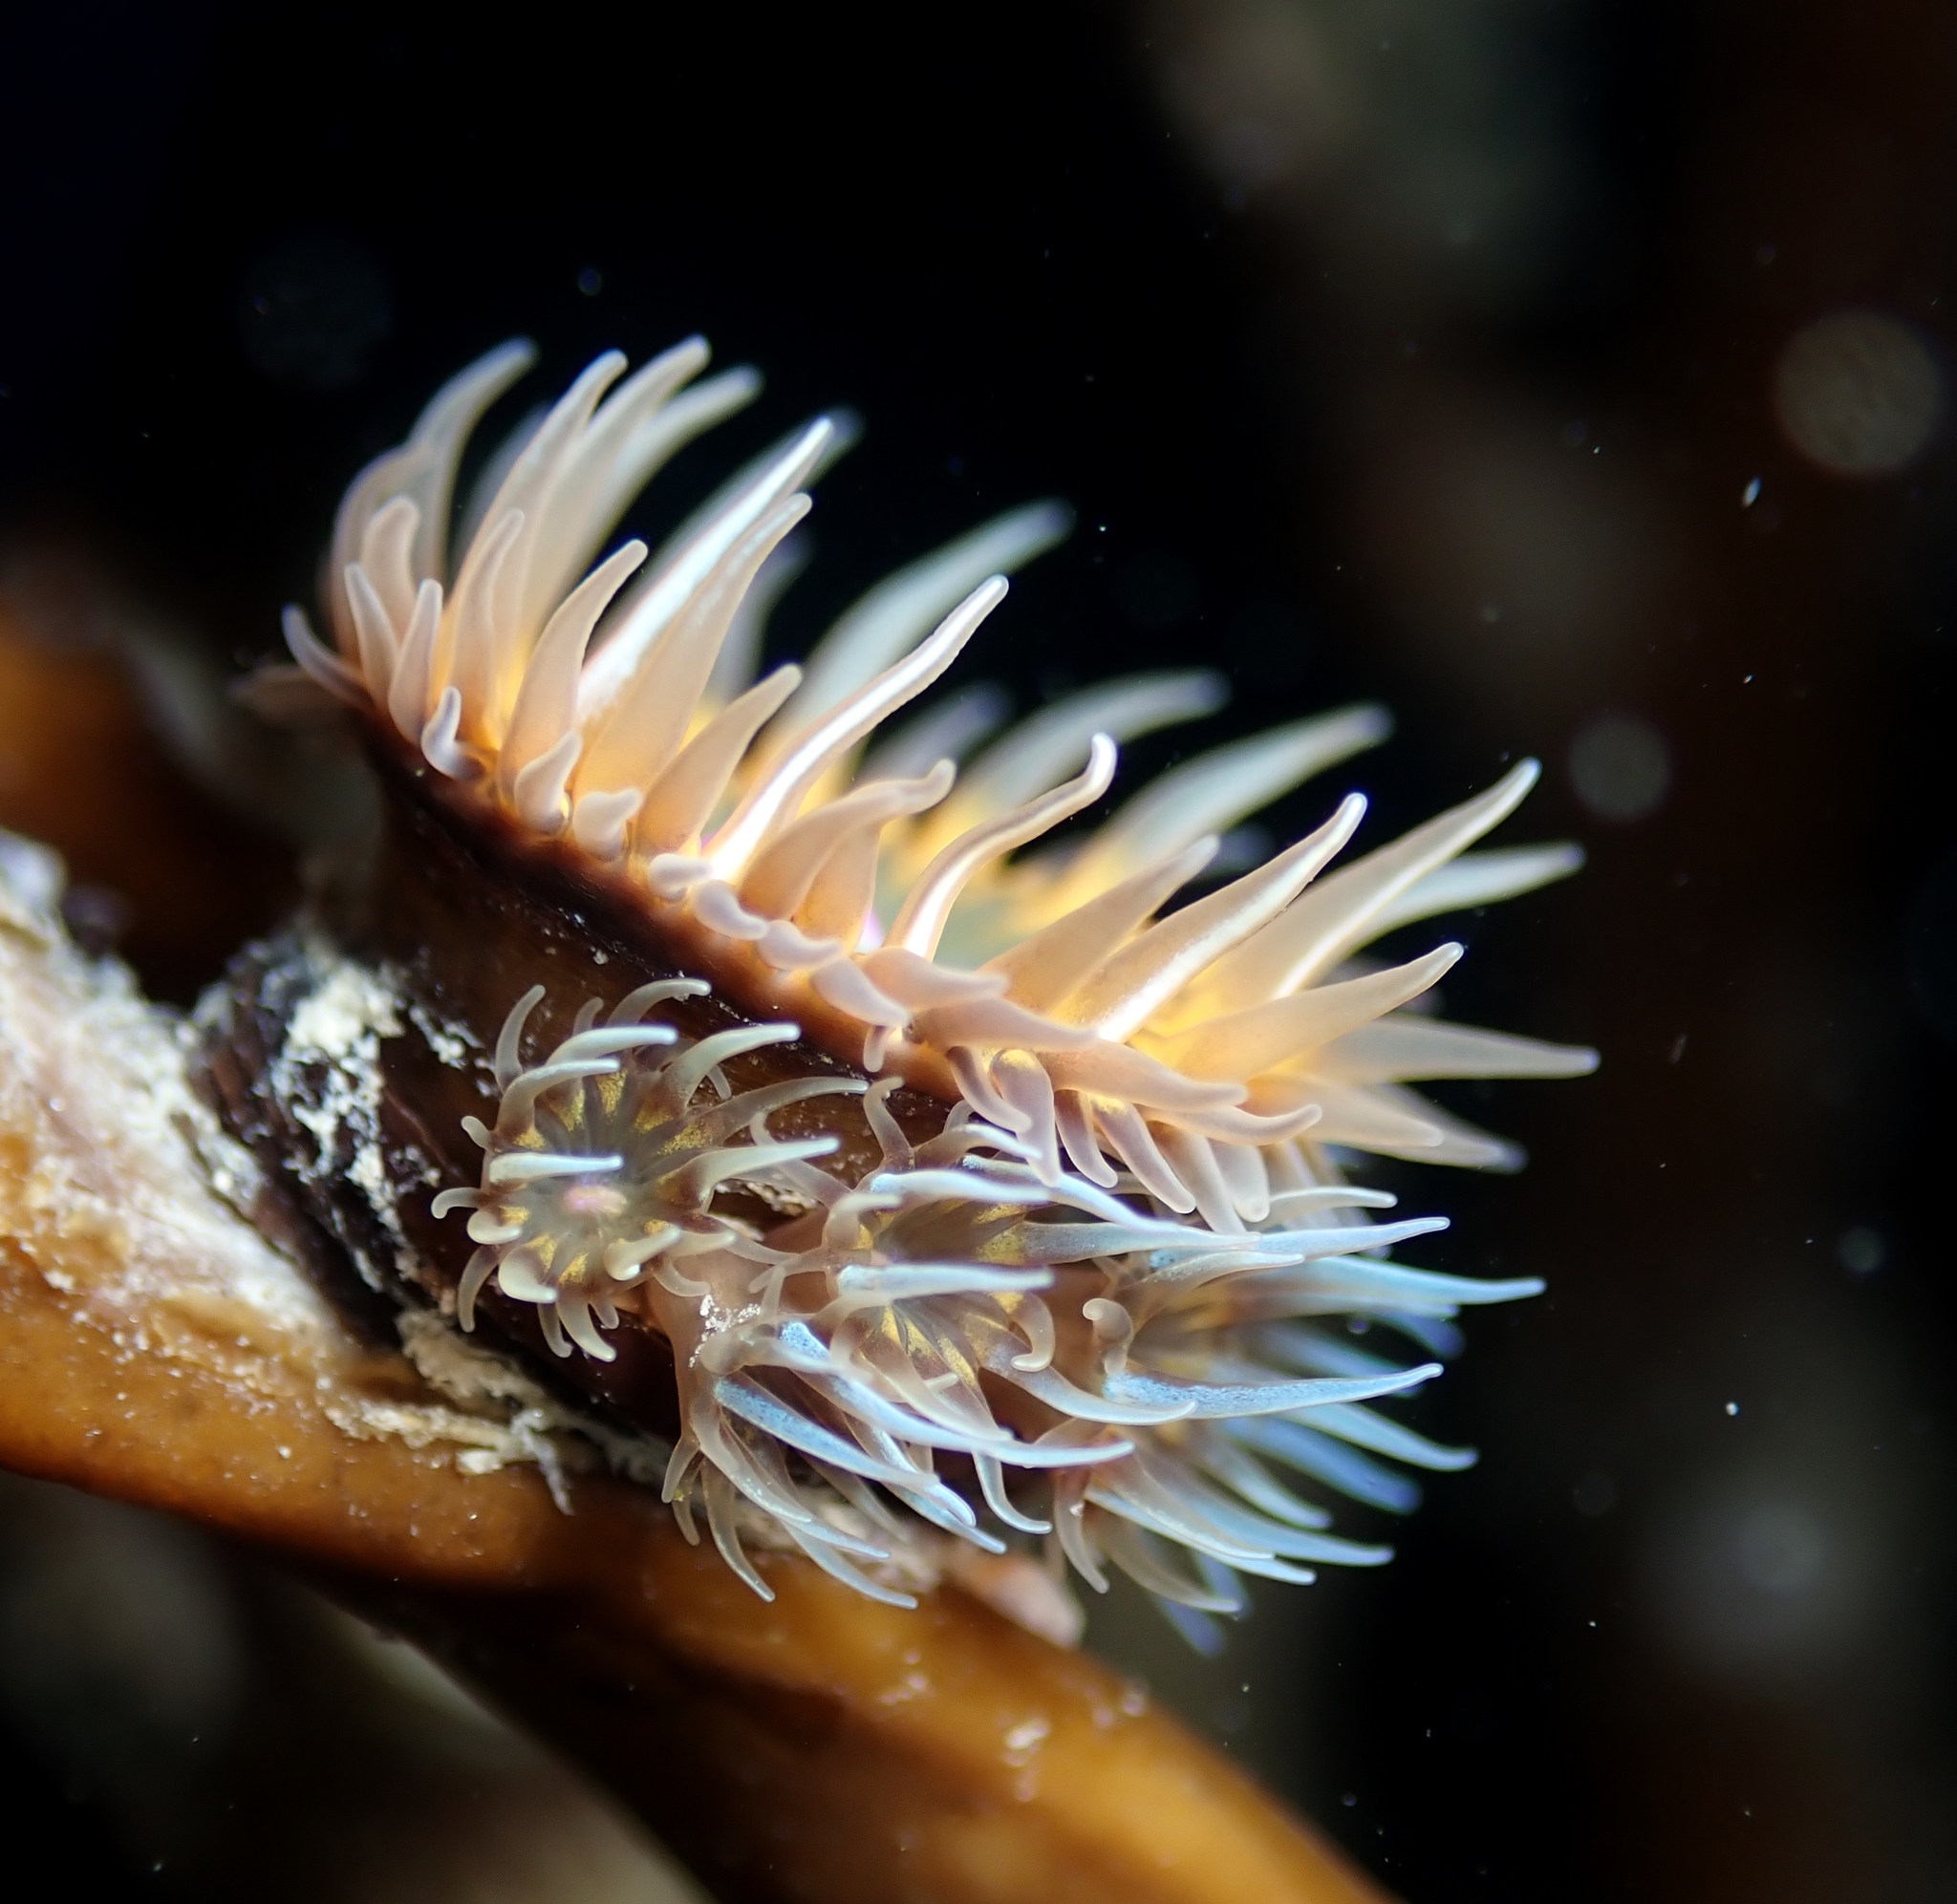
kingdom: Animalia
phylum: Cnidaria
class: Anthozoa
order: Actiniaria
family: Hormathiidae
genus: Handactis
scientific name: Handactis nutrix
